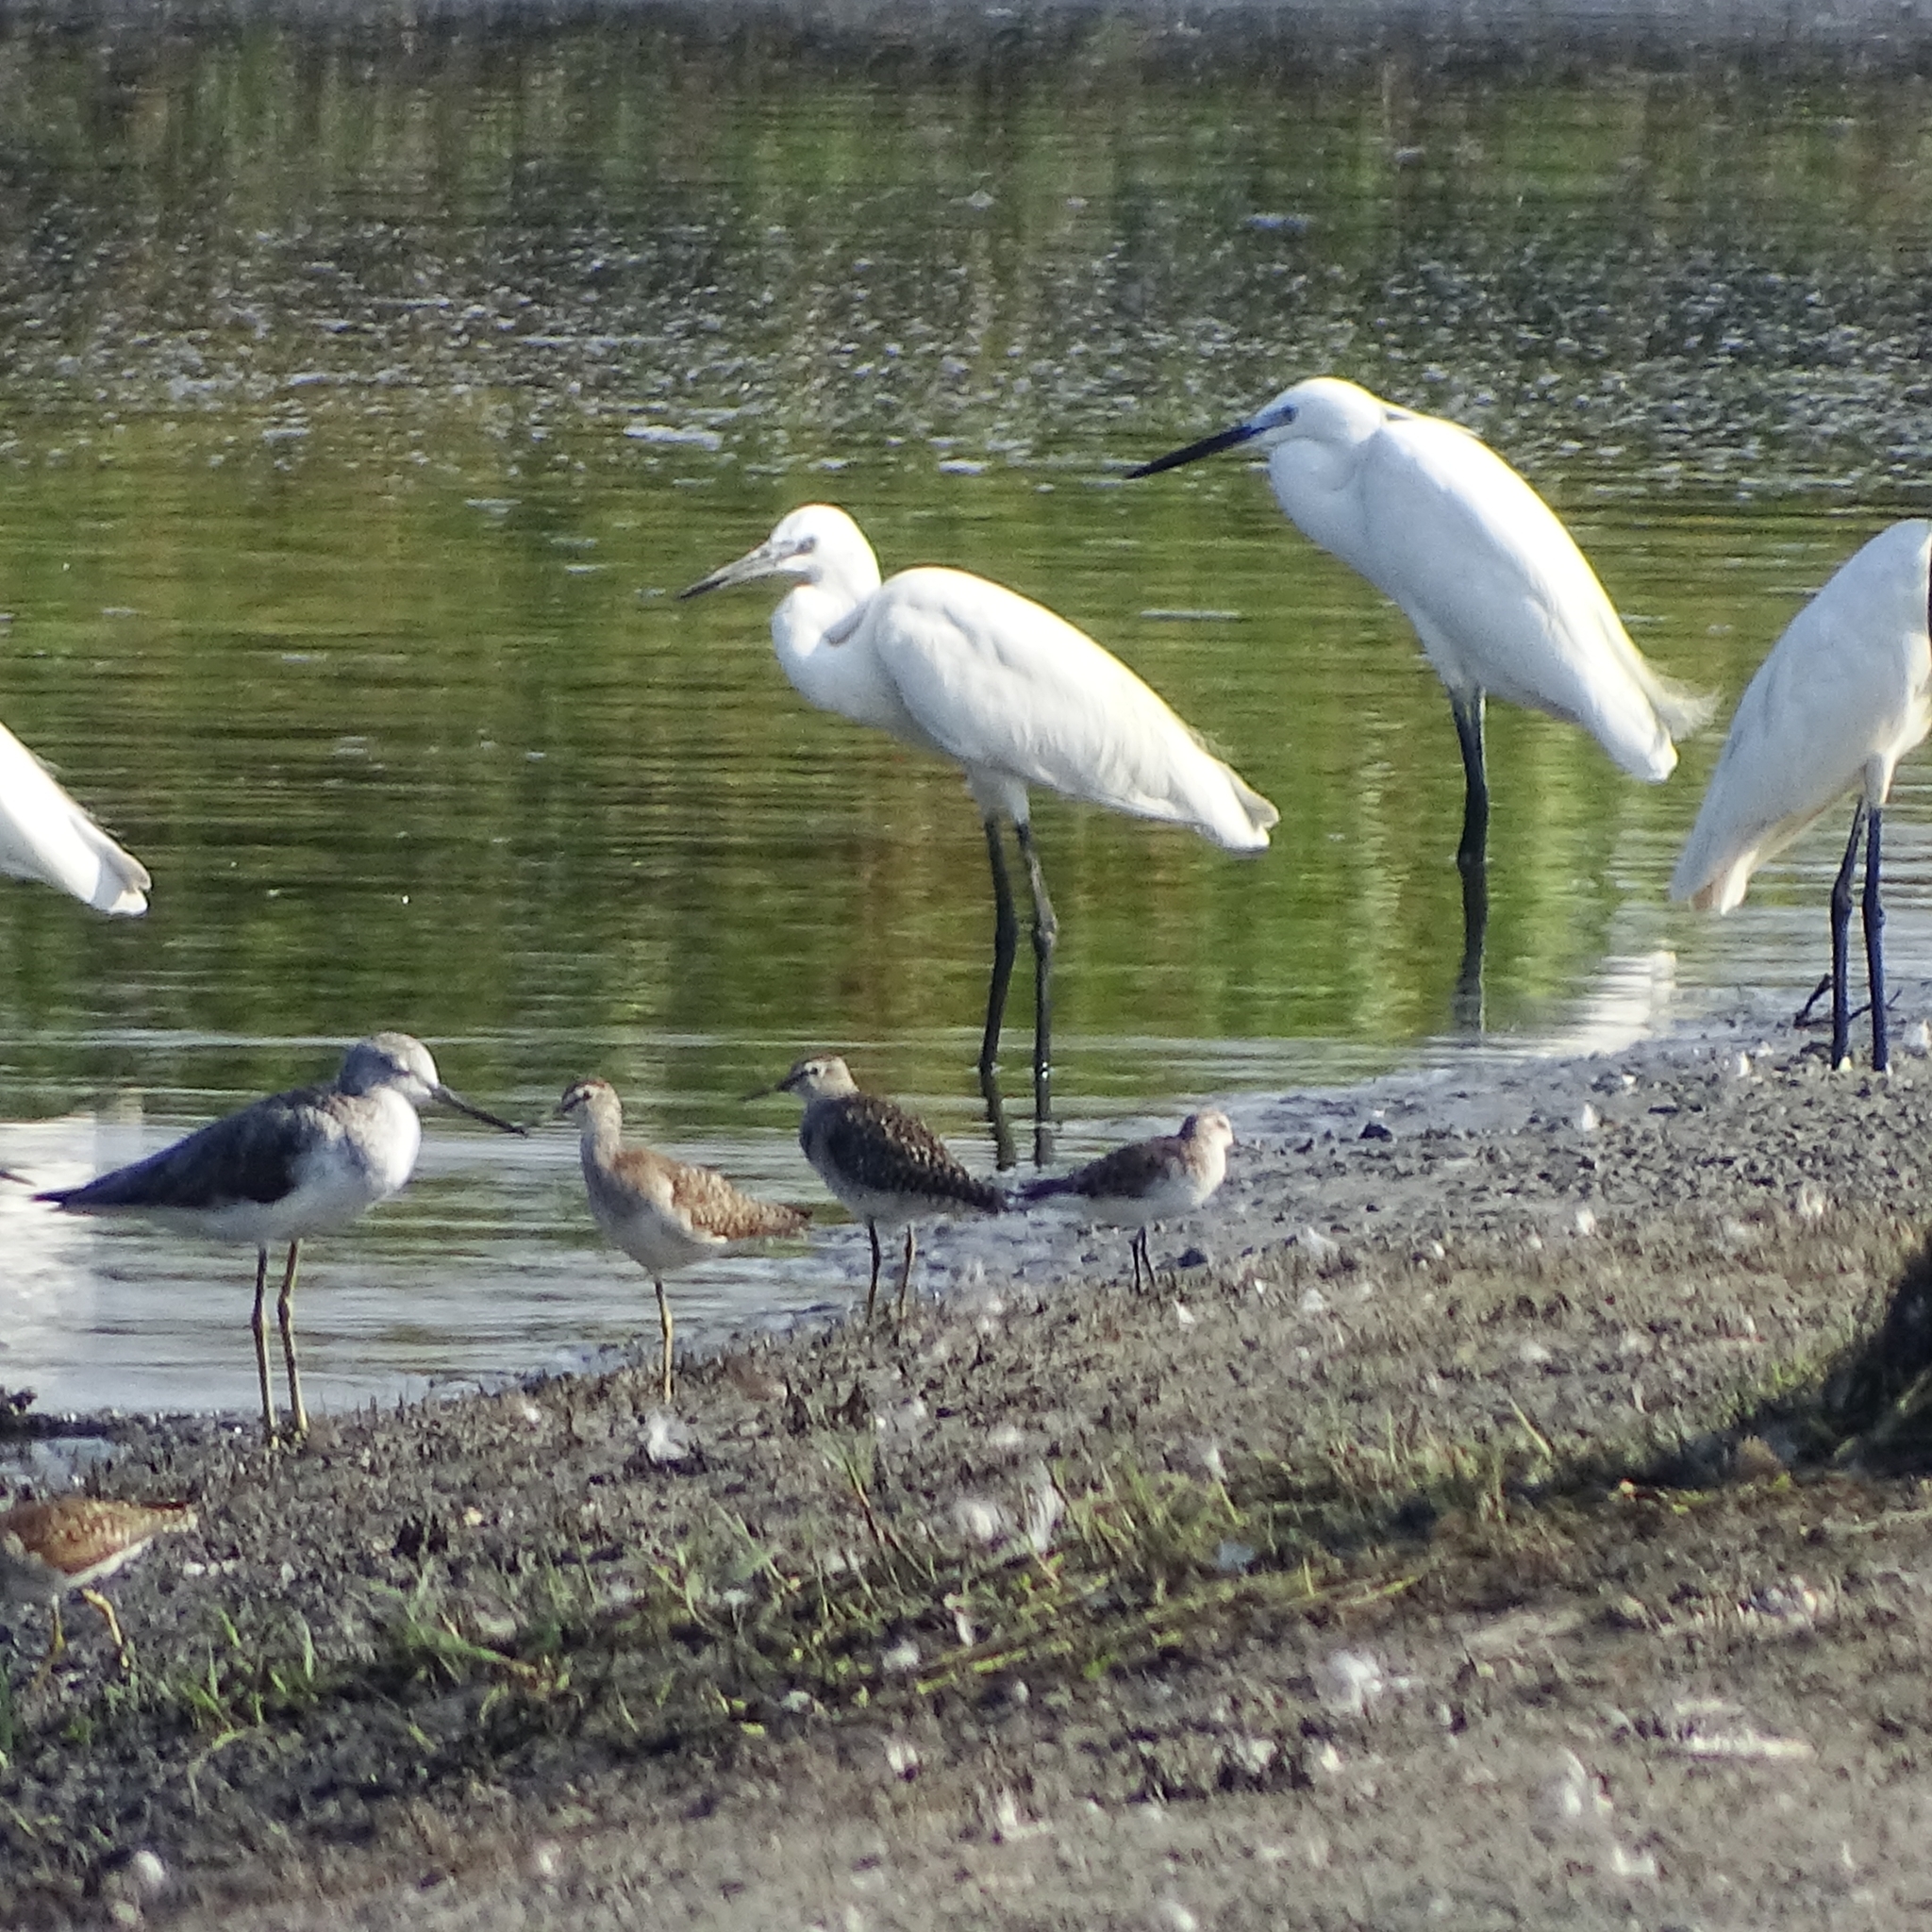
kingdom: Animalia
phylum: Chordata
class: Aves
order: Pelecaniformes
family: Ardeidae
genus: Egretta
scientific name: Egretta garzetta
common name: Little egret
